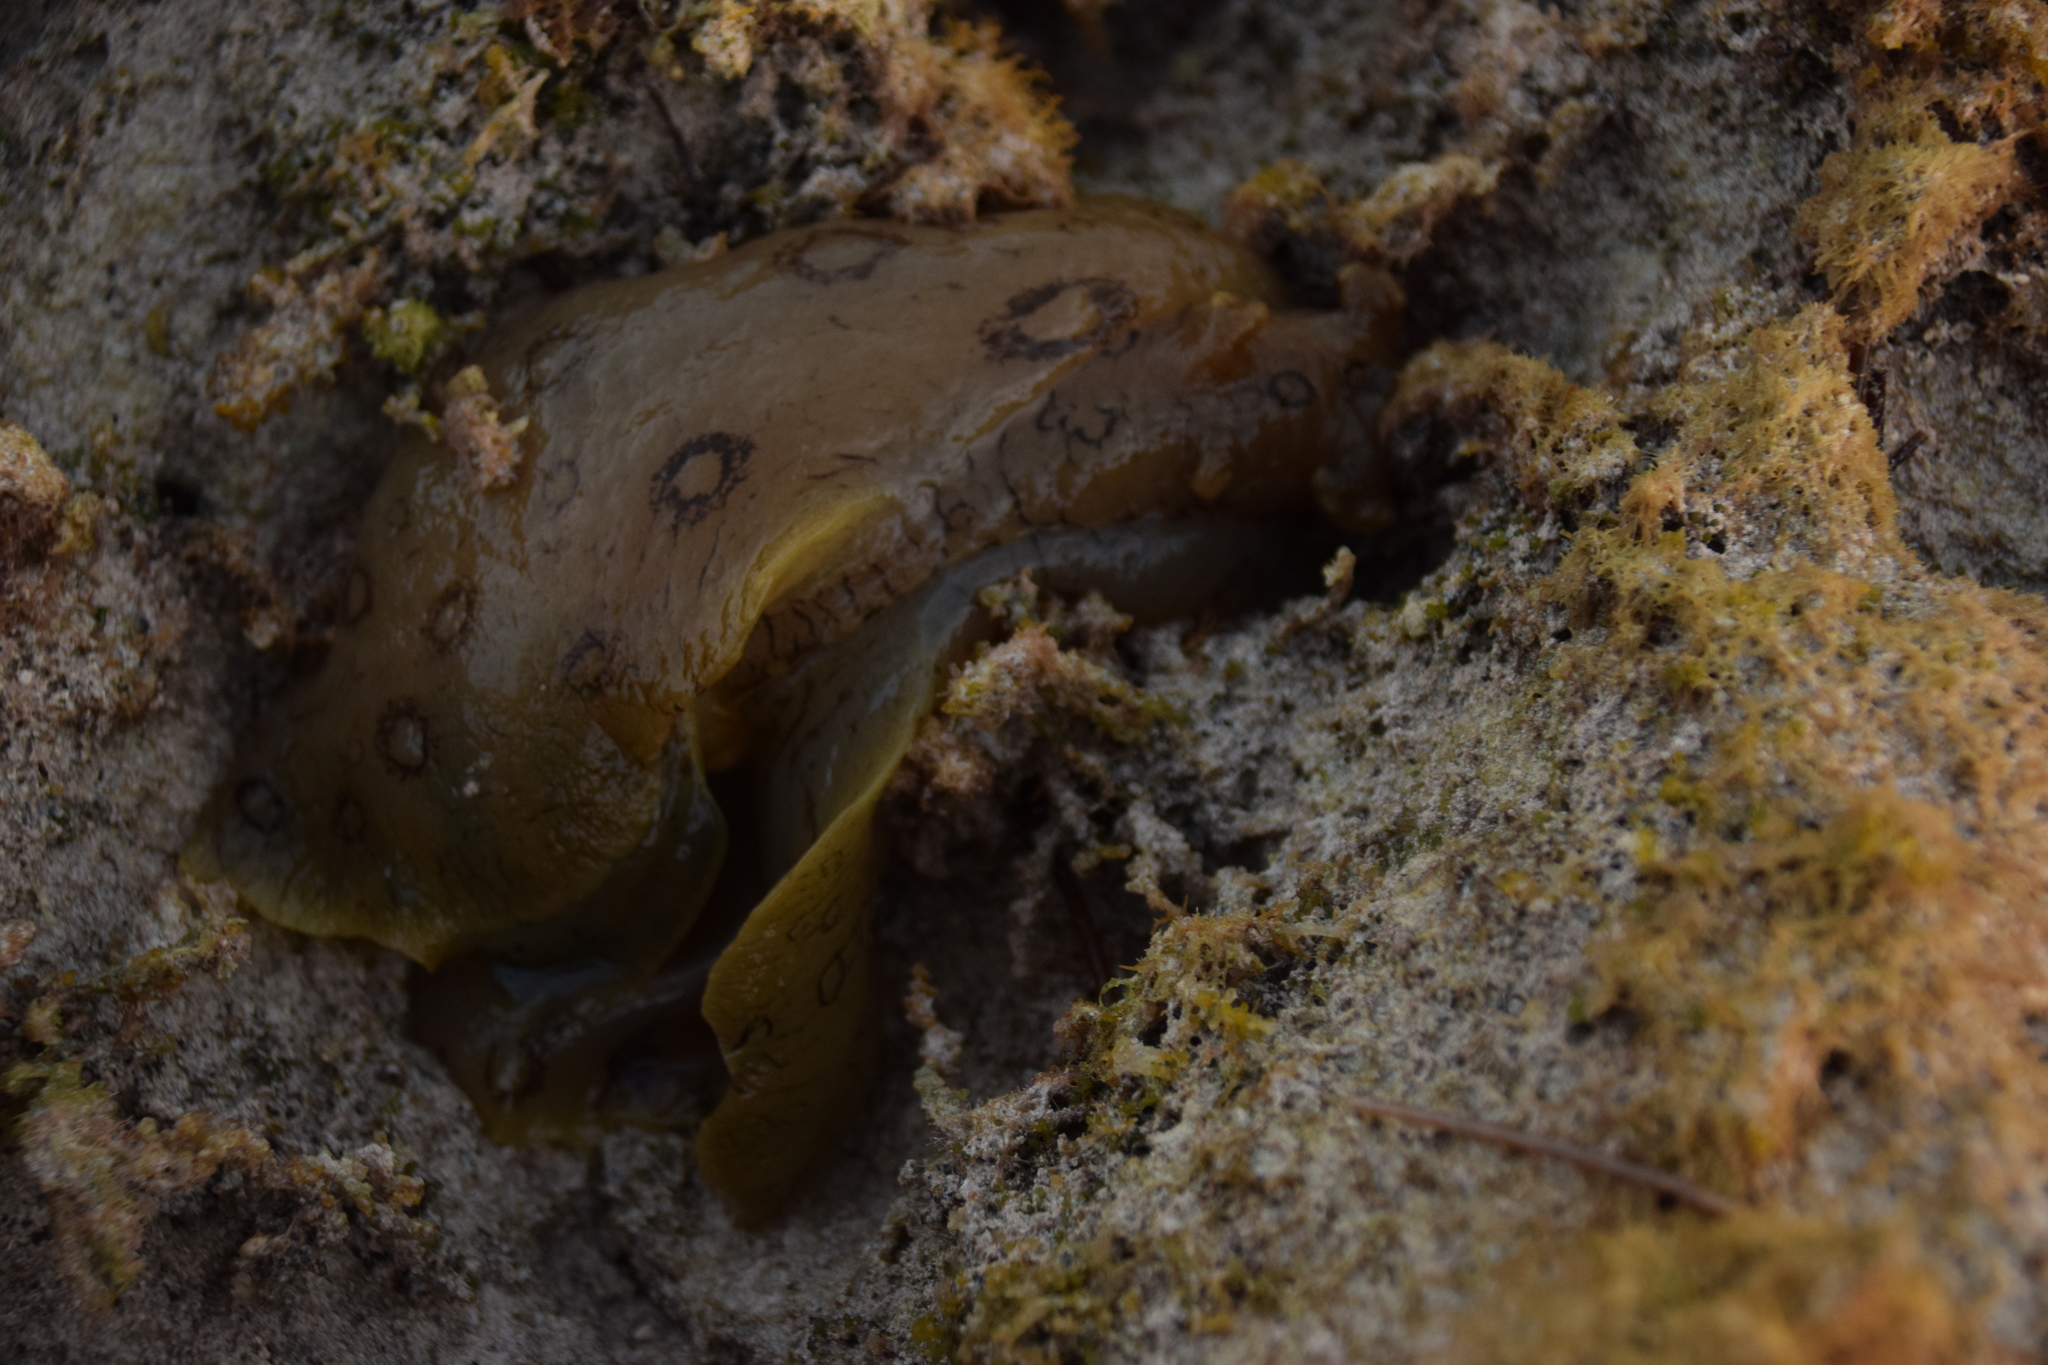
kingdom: Animalia
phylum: Mollusca
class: Gastropoda
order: Aplysiida
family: Aplysiidae
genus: Aplysia
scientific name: Aplysia dactylomela
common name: Large-spotted sea hare
